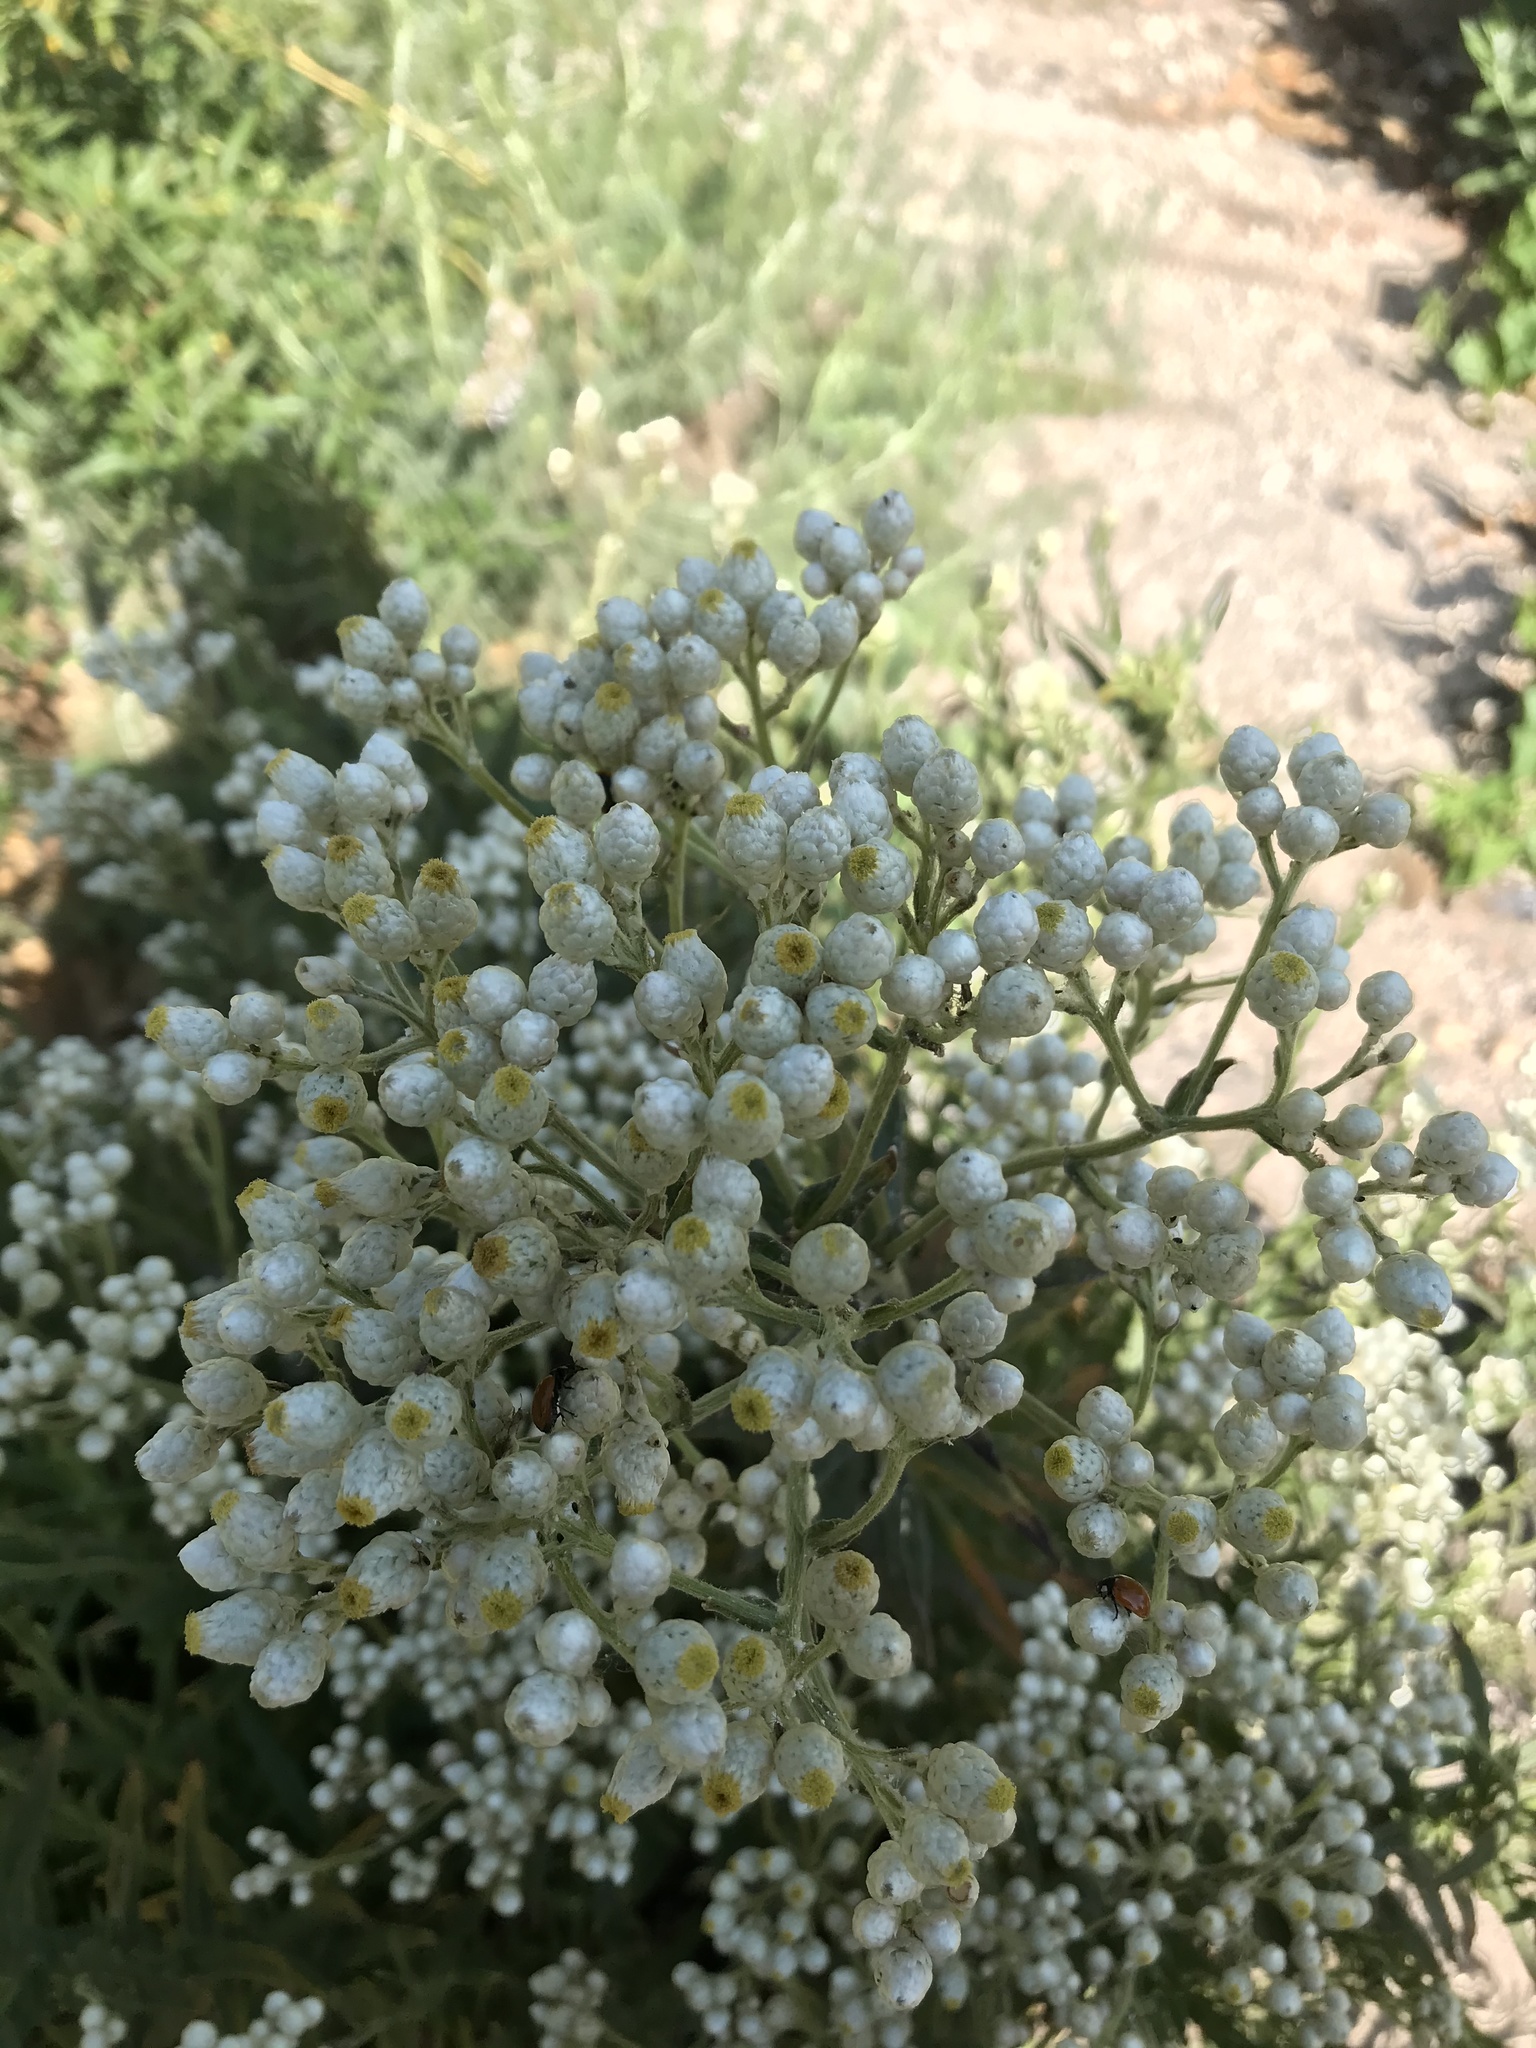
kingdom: Plantae
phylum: Tracheophyta
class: Magnoliopsida
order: Asterales
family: Asteraceae
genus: Pseudognaphalium
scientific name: Pseudognaphalium californicum
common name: California rabbit-tobacco
